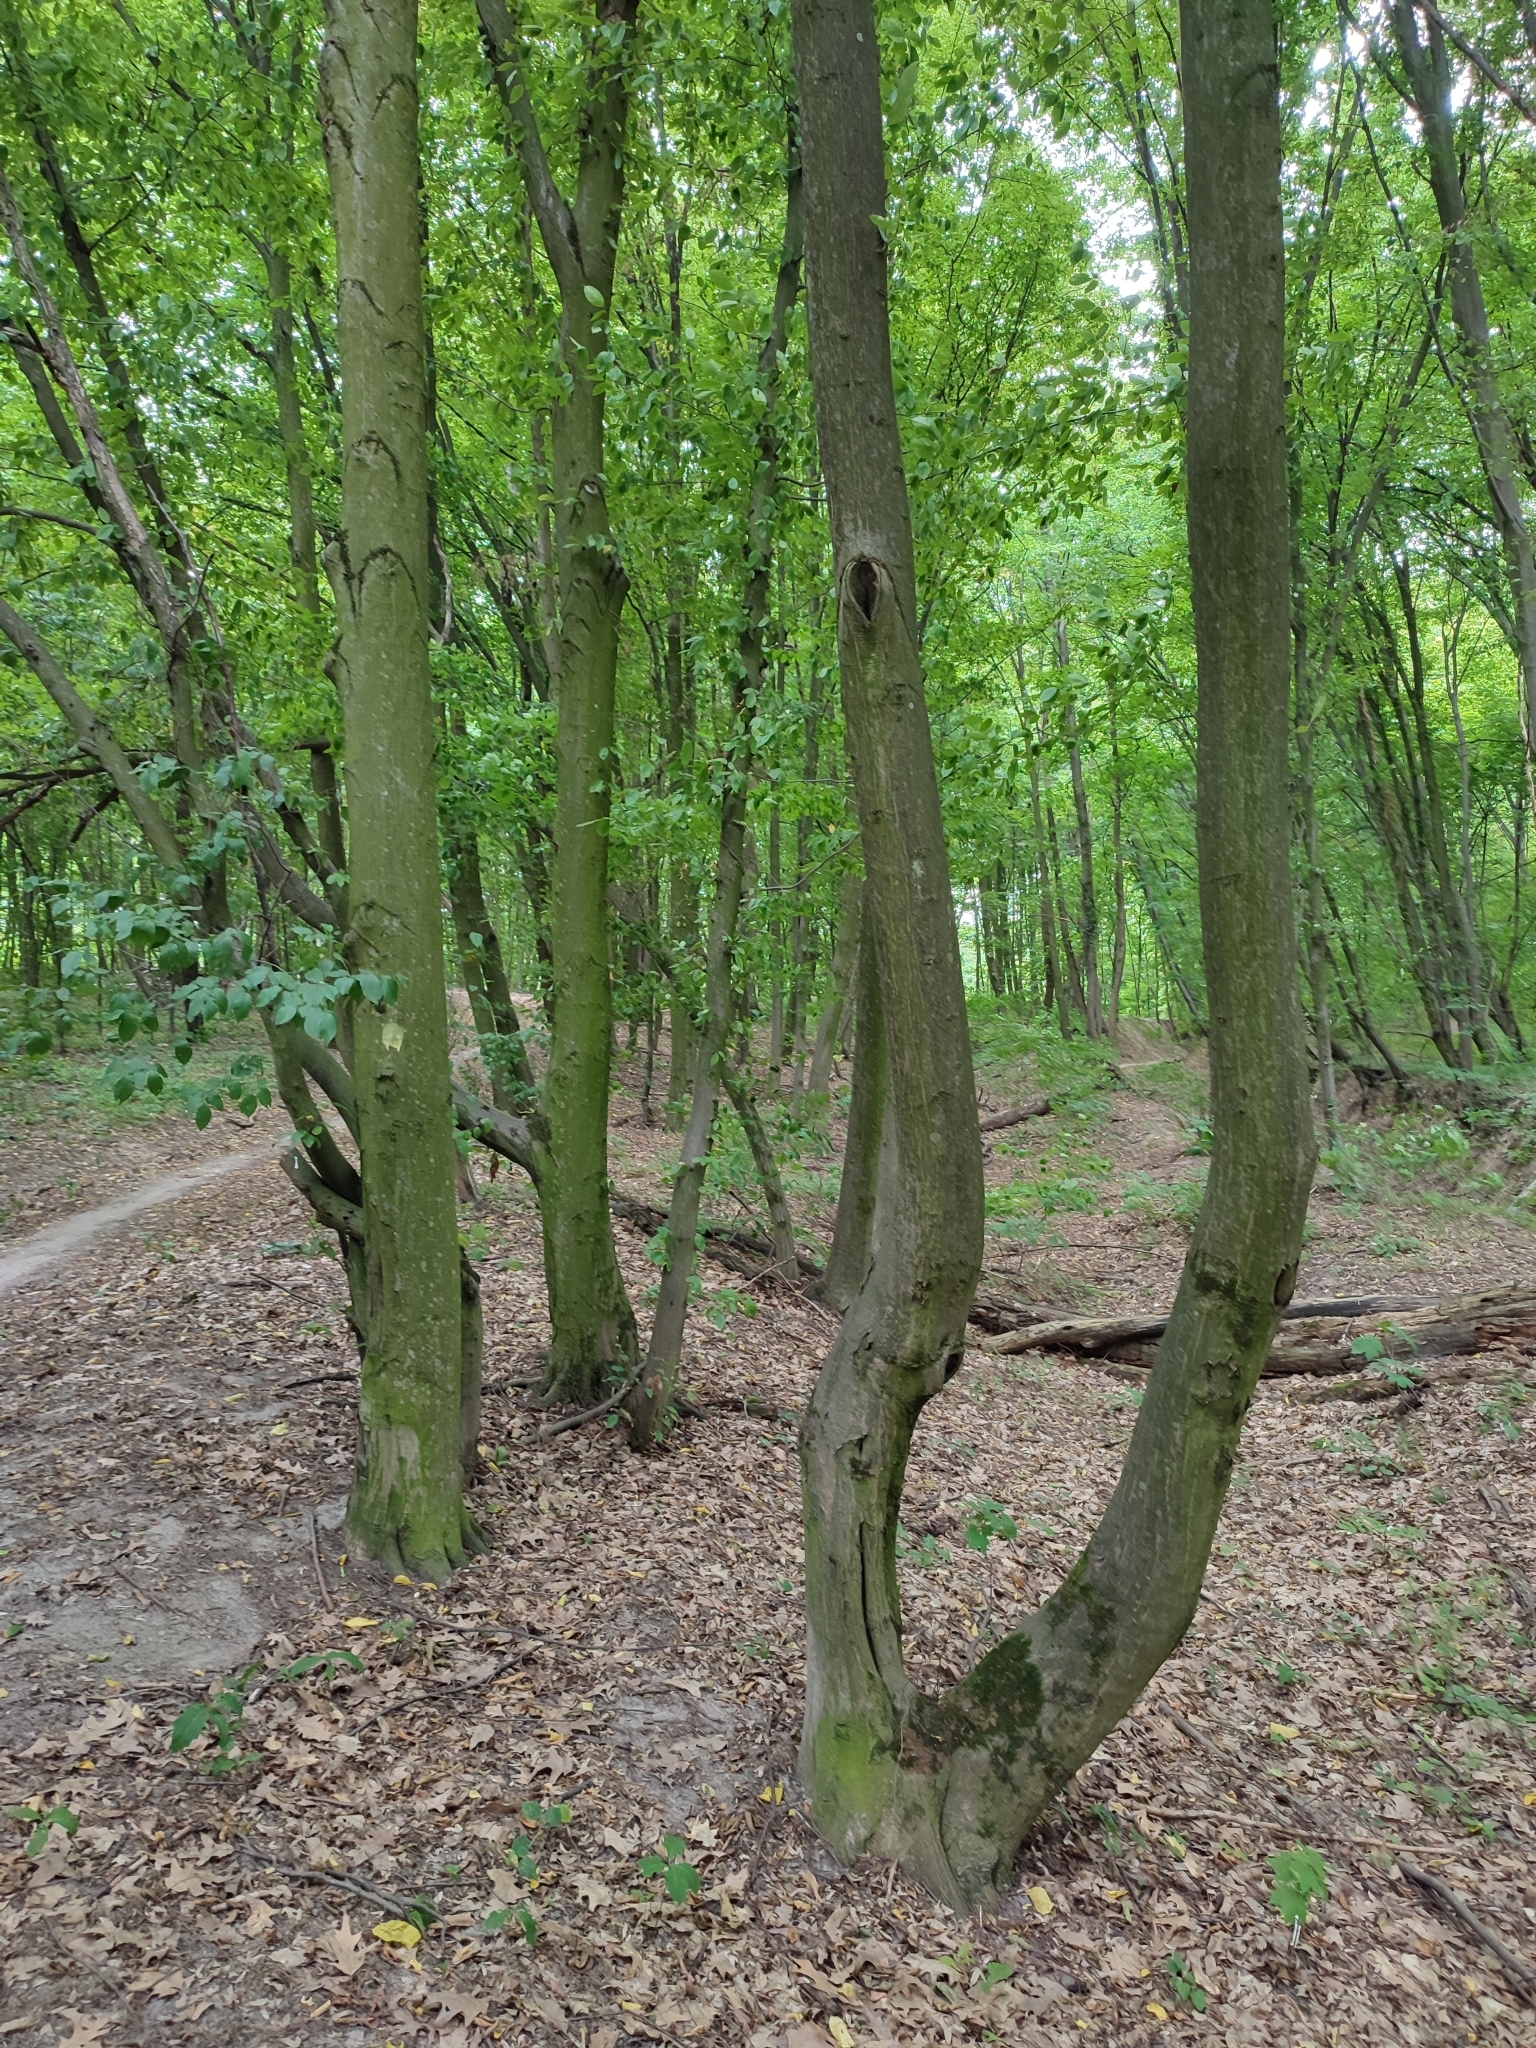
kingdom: Plantae
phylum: Tracheophyta
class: Magnoliopsida
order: Fagales
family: Betulaceae
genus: Carpinus
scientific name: Carpinus betulus
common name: Hornbeam
